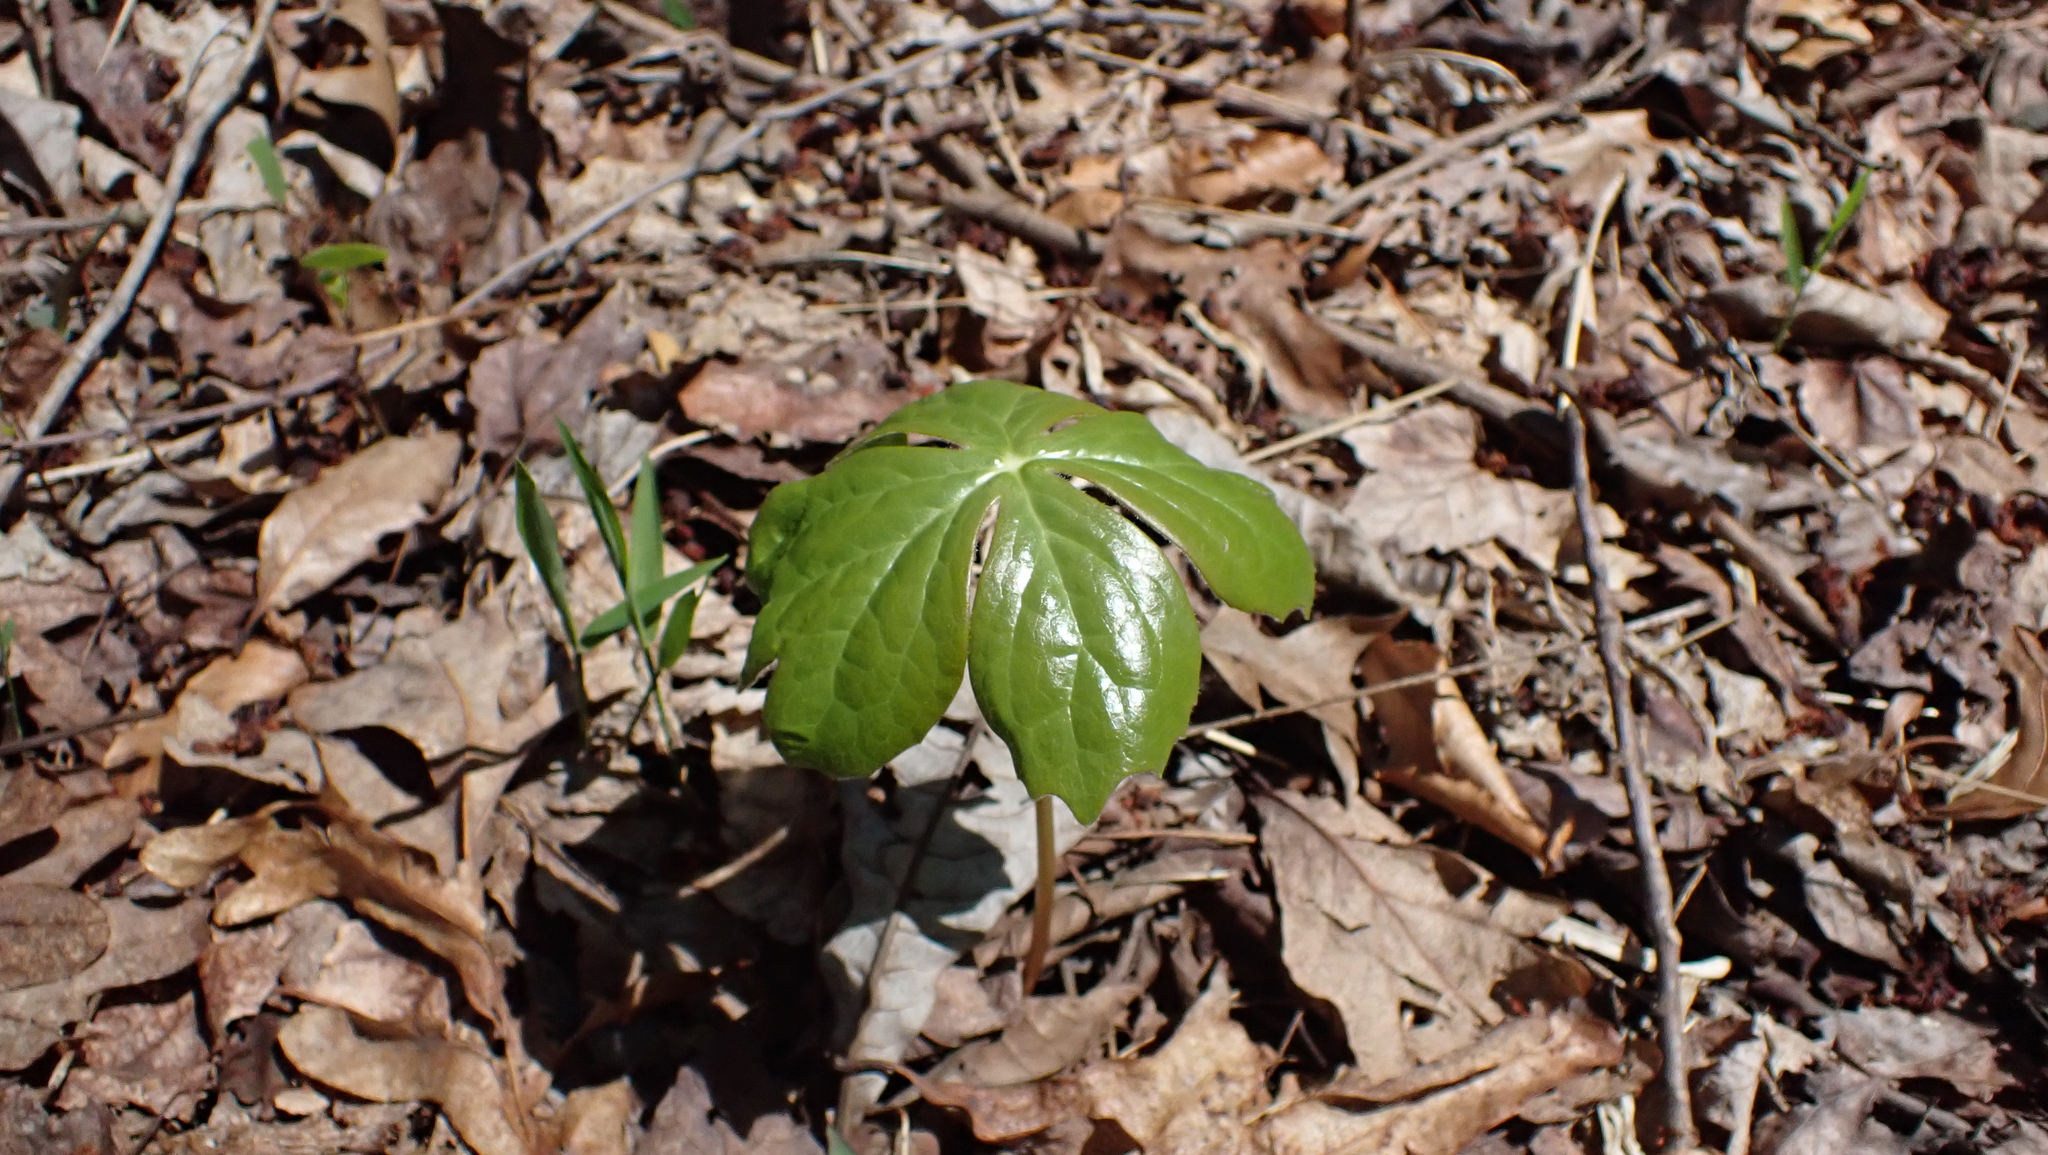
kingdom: Plantae
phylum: Tracheophyta
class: Magnoliopsida
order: Ranunculales
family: Berberidaceae
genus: Podophyllum
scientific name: Podophyllum peltatum
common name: Wild mandrake
